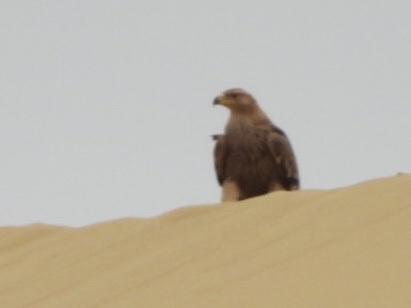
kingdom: Animalia
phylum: Chordata
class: Aves
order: Accipitriformes
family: Accipitridae
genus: Aquila
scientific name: Aquila heliaca
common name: Eastern imperial eagle
